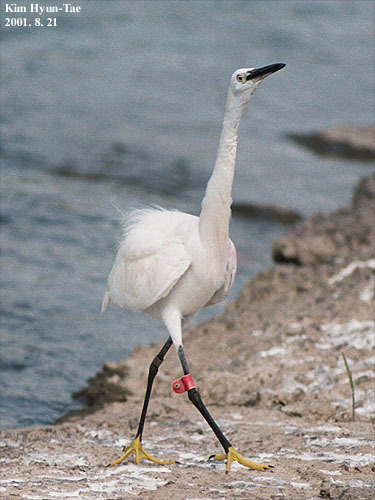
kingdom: Animalia
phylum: Chordata
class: Aves
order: Pelecaniformes
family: Ardeidae
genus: Egretta
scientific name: Egretta garzetta
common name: Little egret
